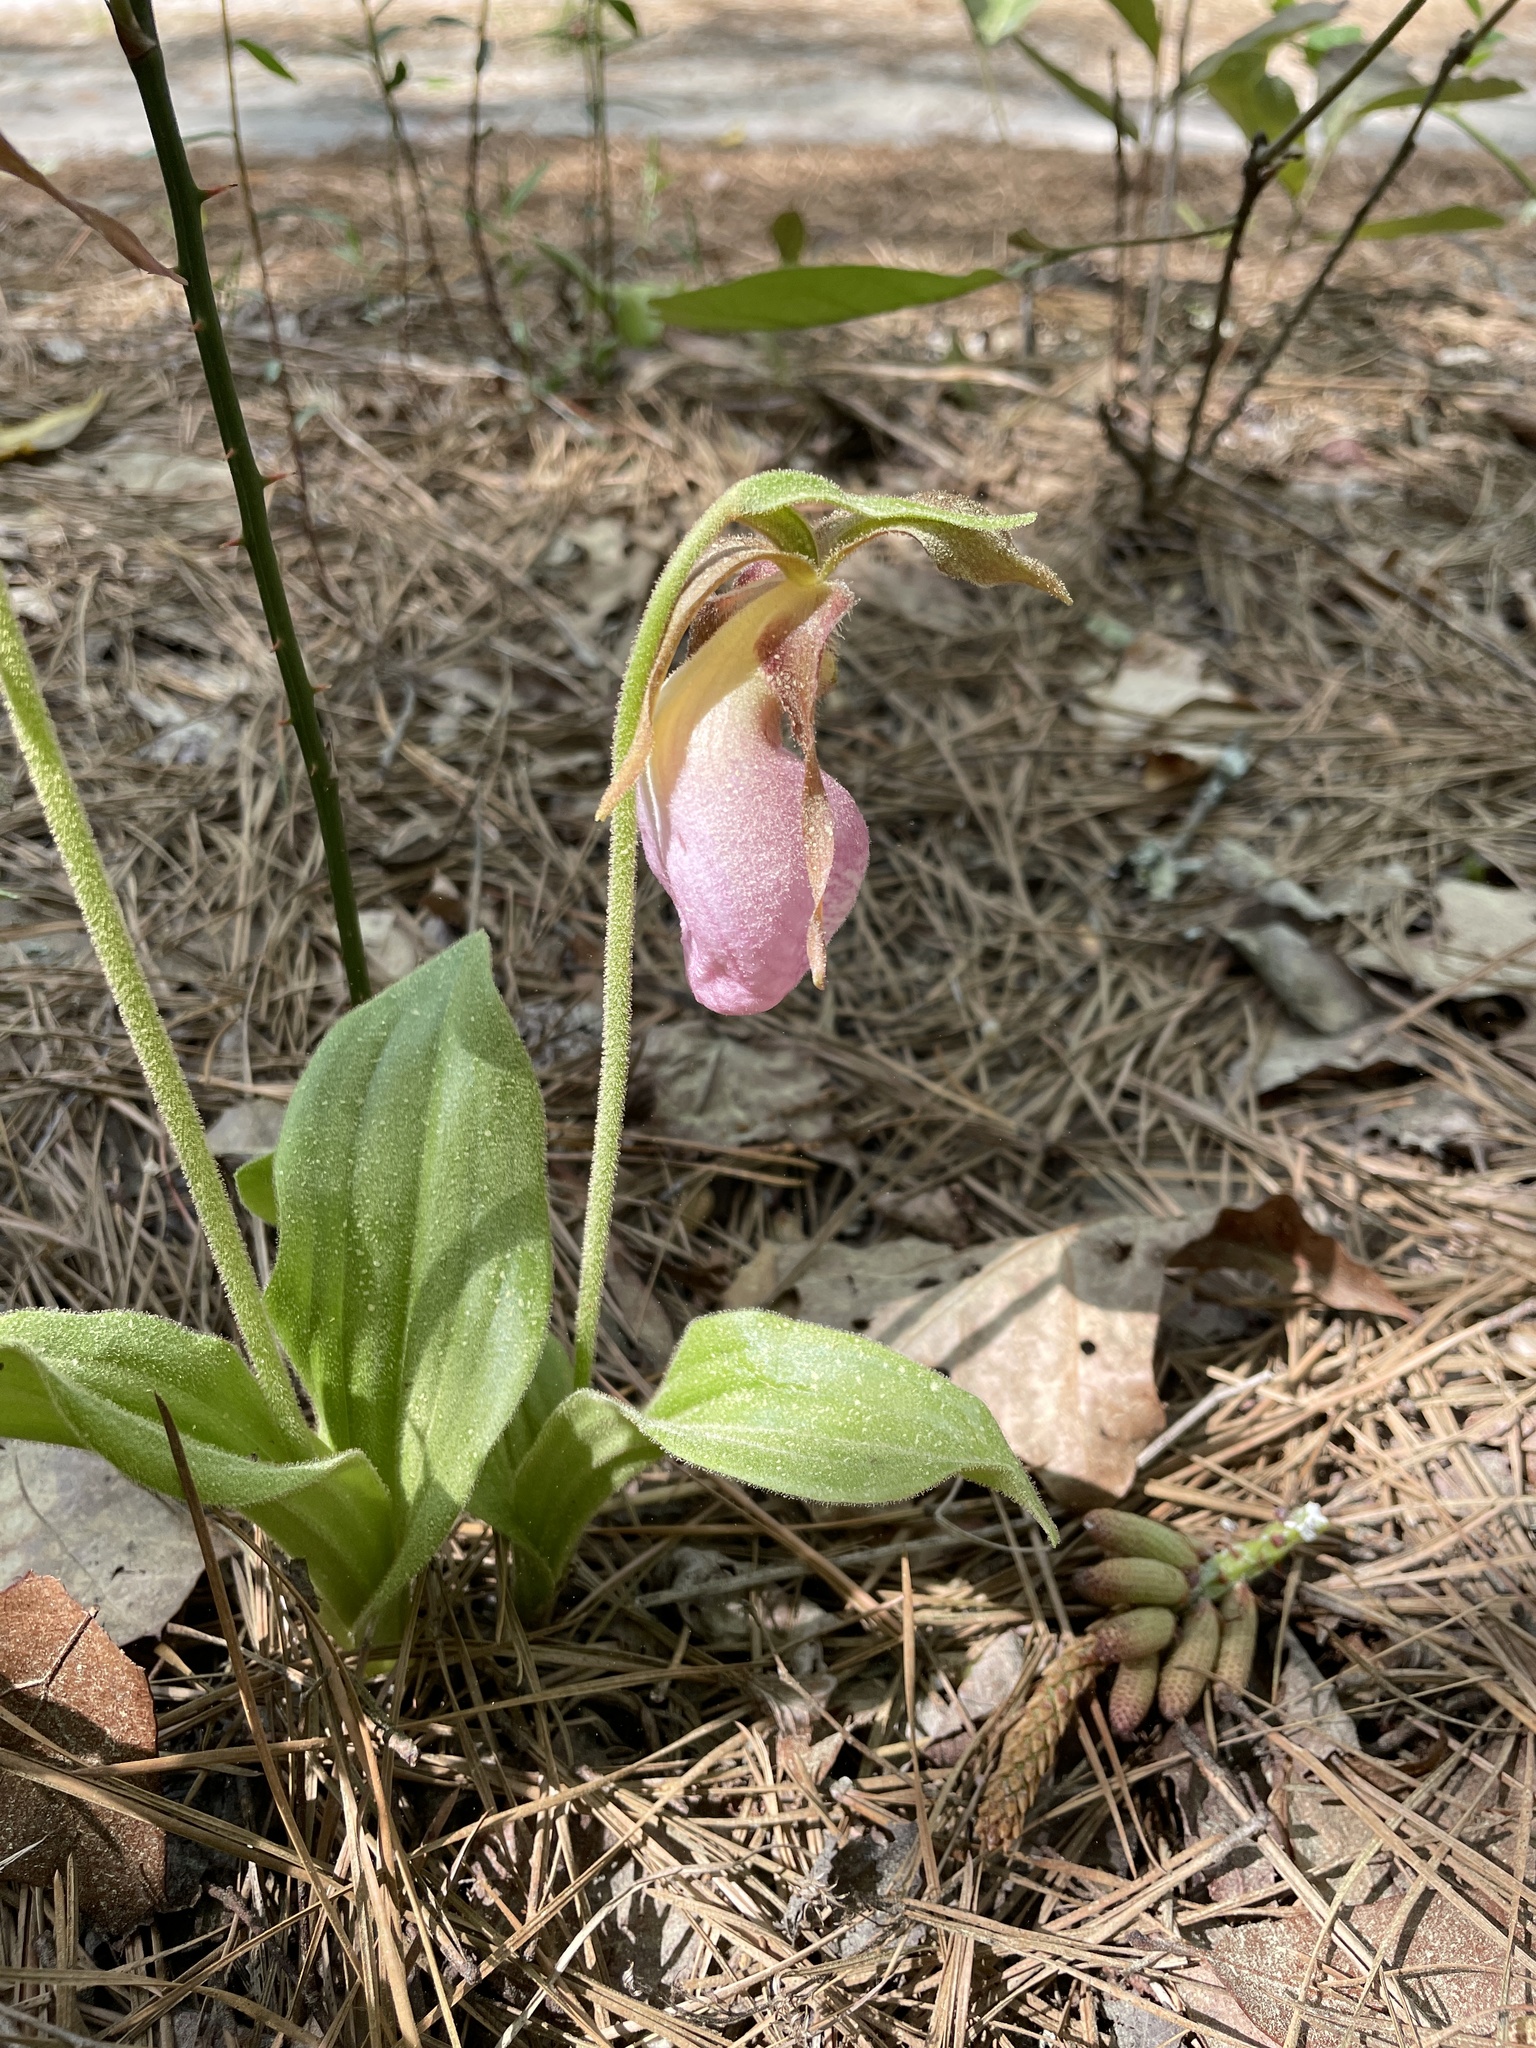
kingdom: Plantae
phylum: Tracheophyta
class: Liliopsida
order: Asparagales
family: Orchidaceae
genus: Cypripedium
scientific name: Cypripedium acaule
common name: Pink lady's-slipper
